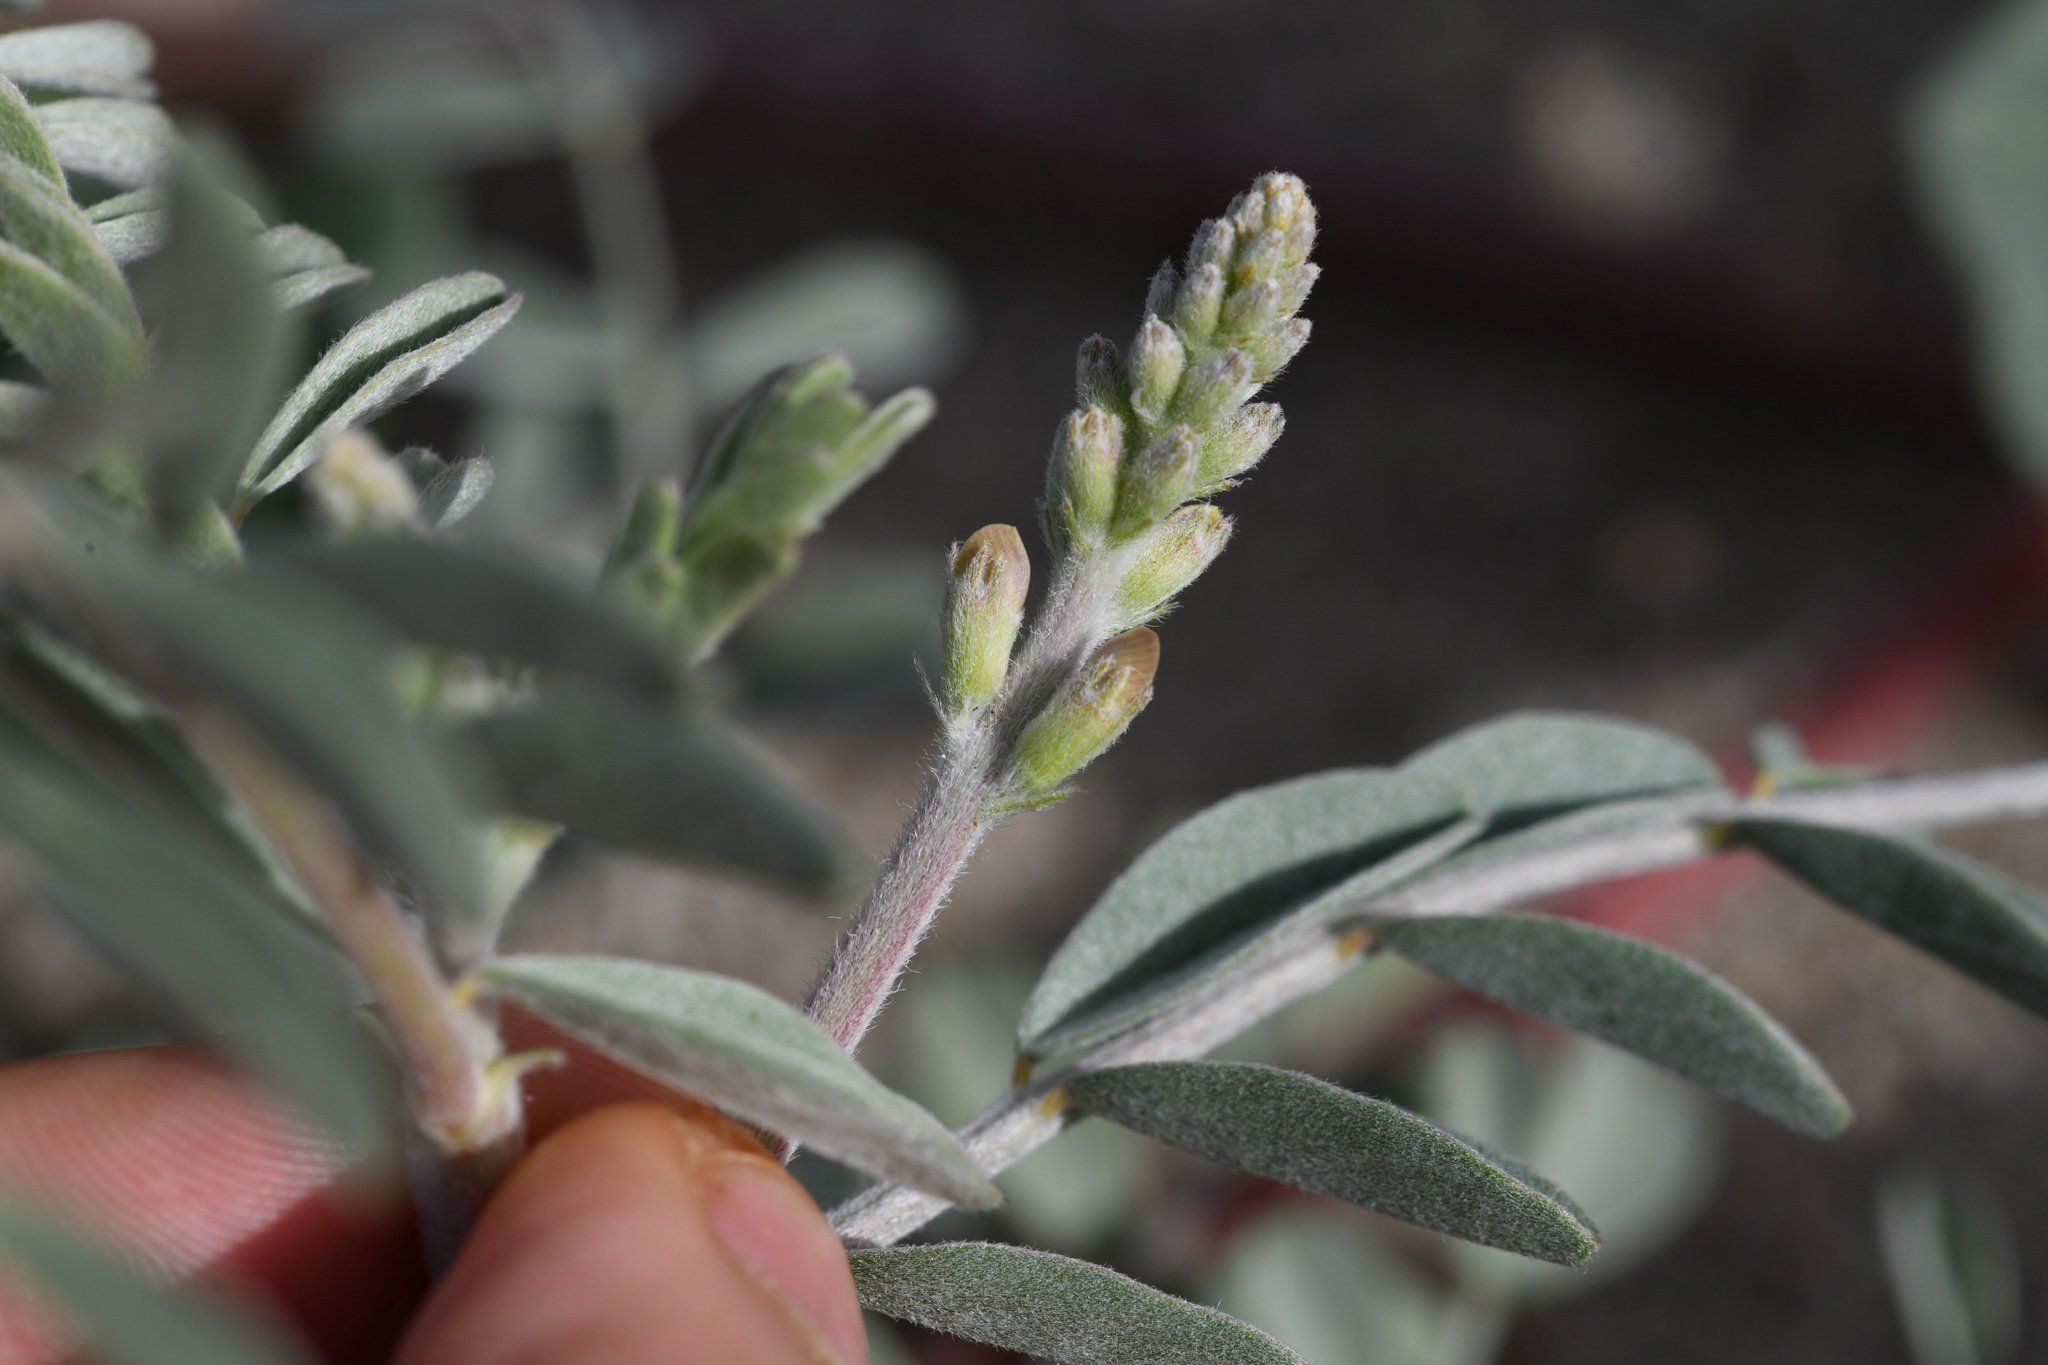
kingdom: Plantae
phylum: Tracheophyta
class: Magnoliopsida
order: Fabales
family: Fabaceae
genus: Astragalus
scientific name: Astragalus aridus
